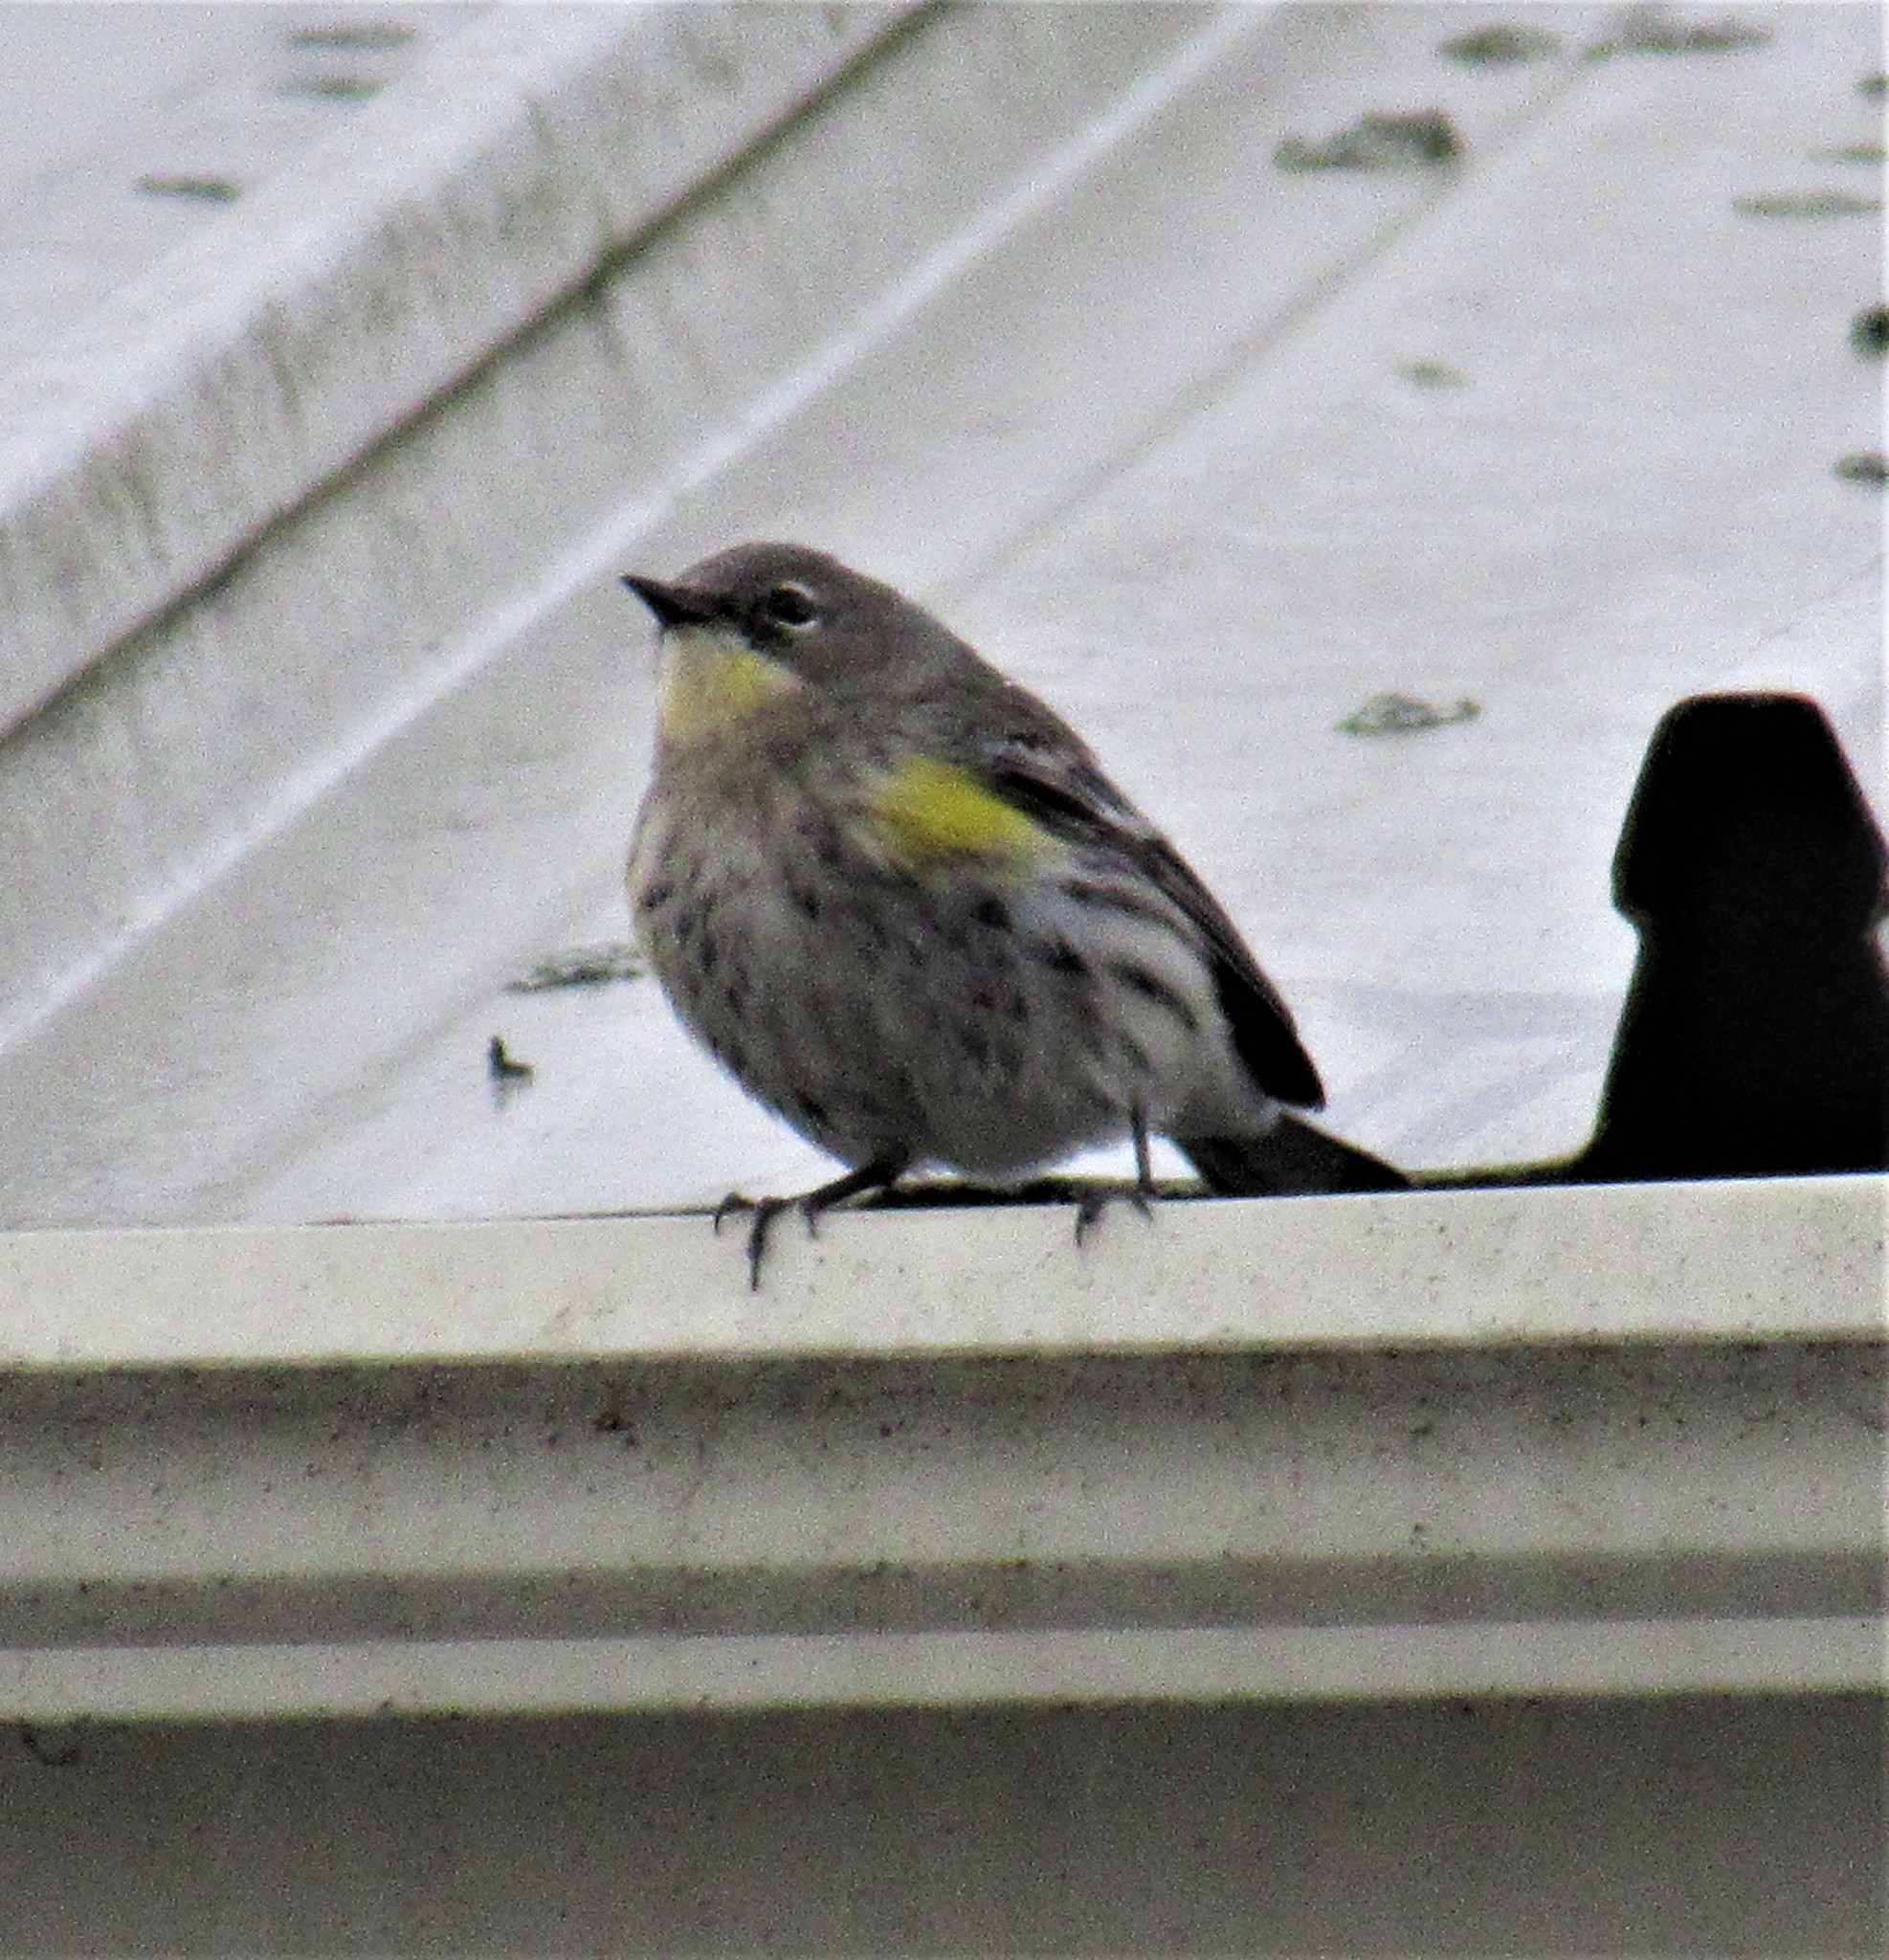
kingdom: Animalia
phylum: Chordata
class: Aves
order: Passeriformes
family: Parulidae
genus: Setophaga
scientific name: Setophaga coronata
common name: Myrtle warbler
